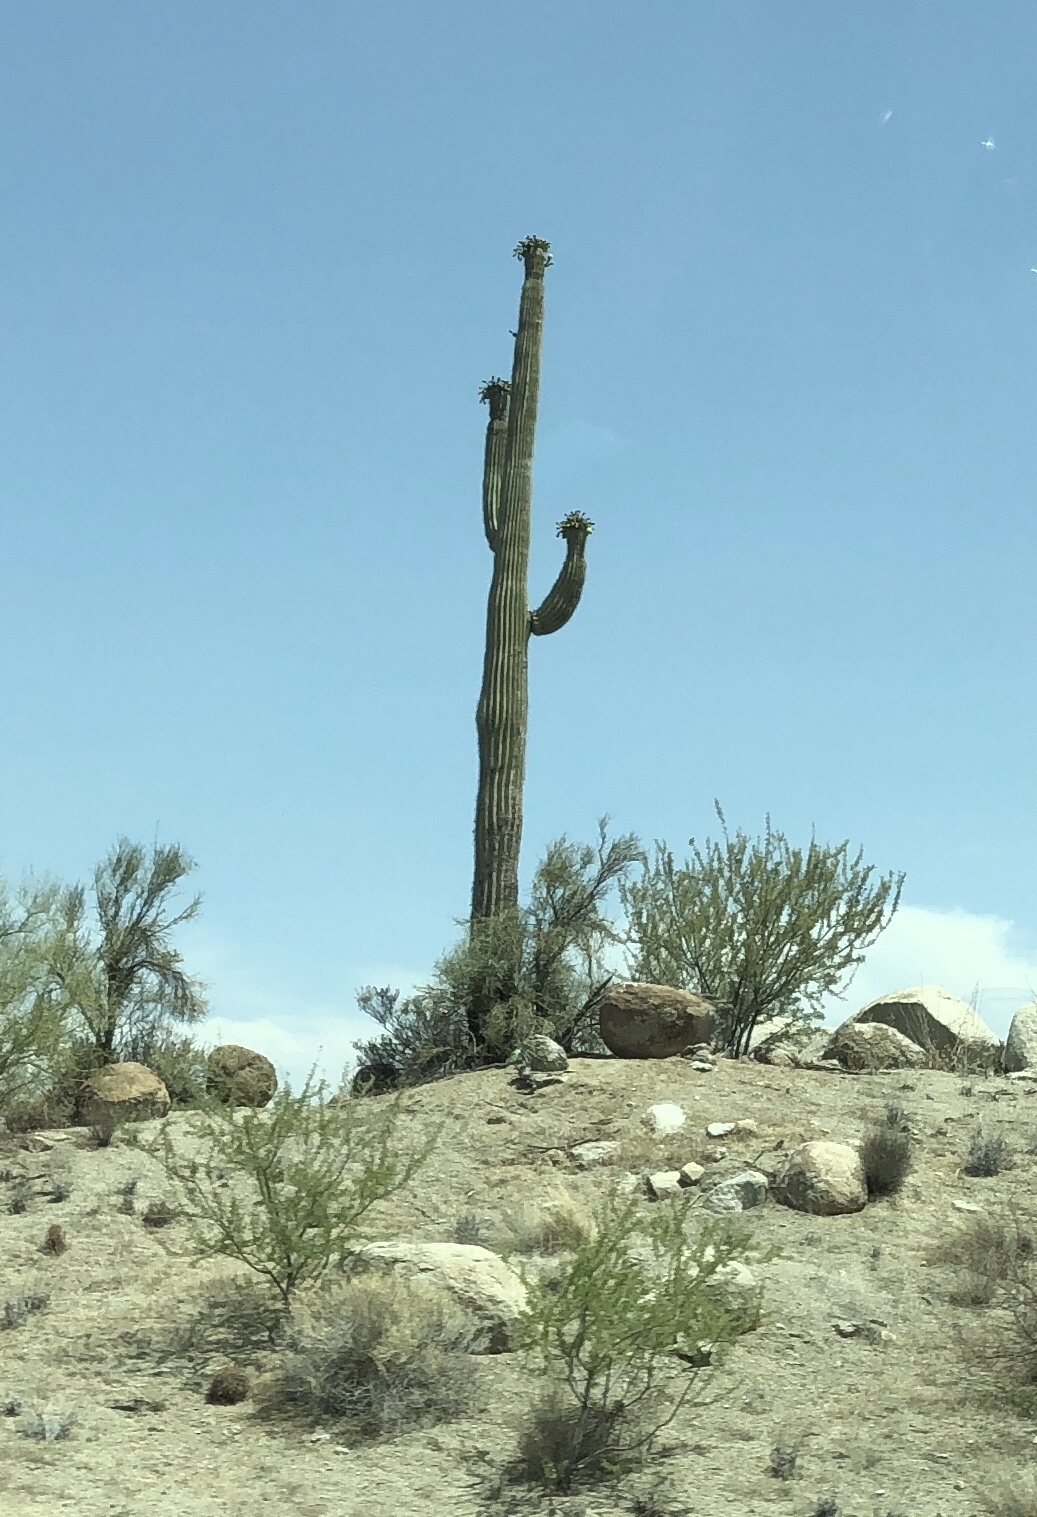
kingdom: Plantae
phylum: Tracheophyta
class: Magnoliopsida
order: Caryophyllales
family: Cactaceae
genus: Carnegiea
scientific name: Carnegiea gigantea
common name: Saguaro
